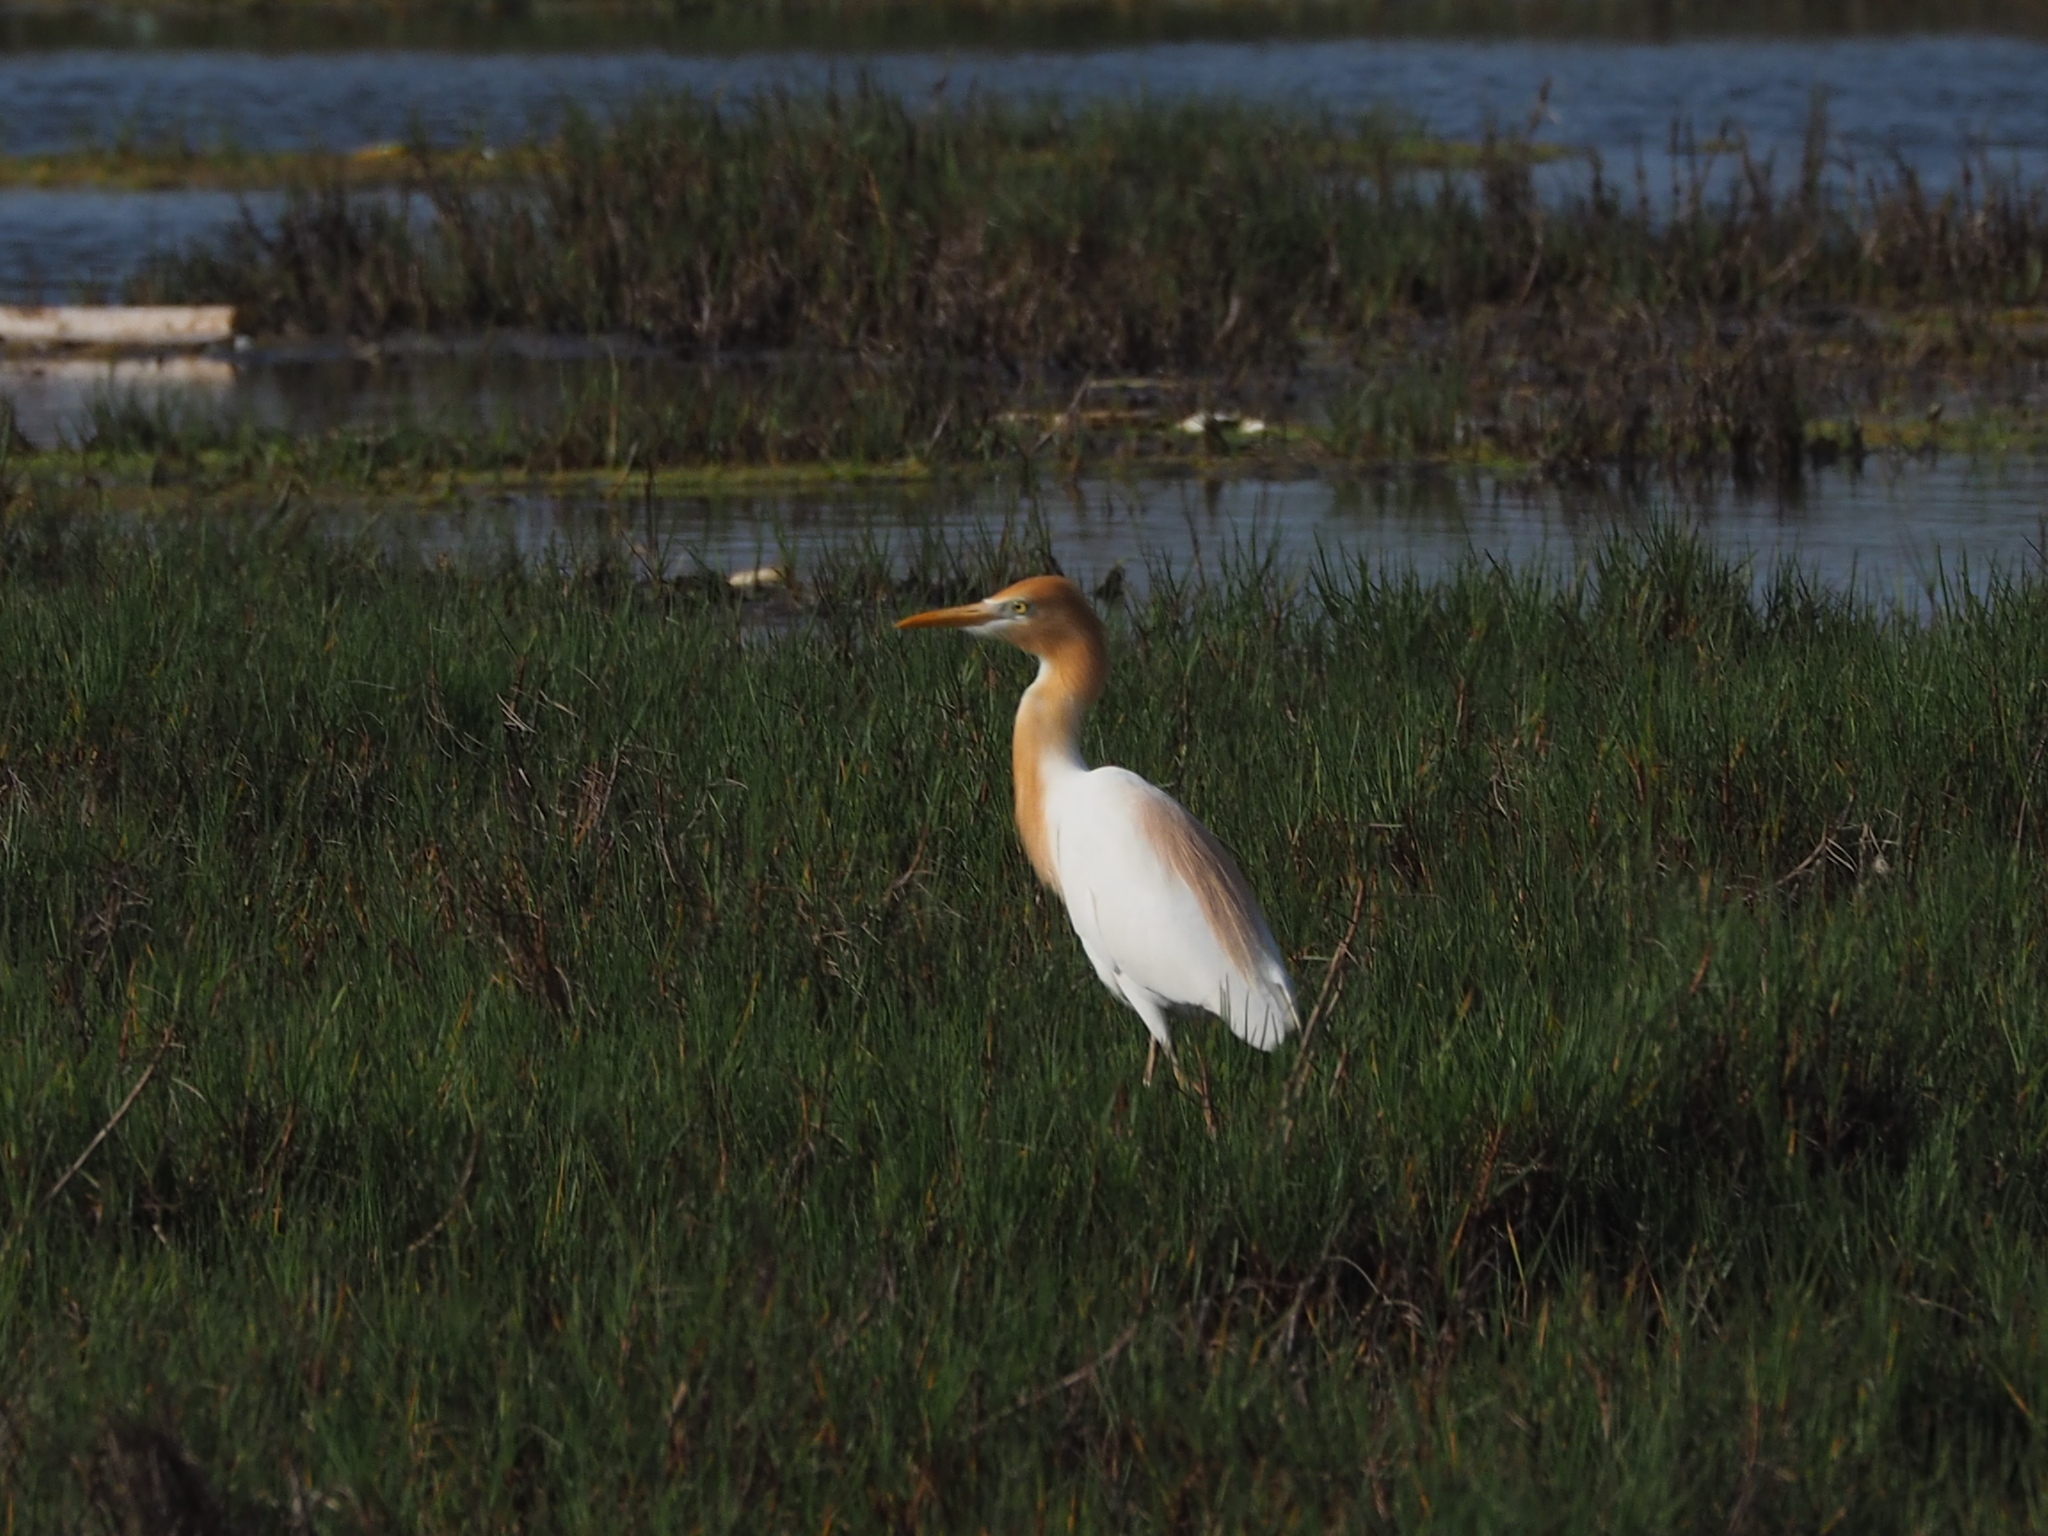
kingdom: Animalia
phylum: Chordata
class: Aves
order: Pelecaniformes
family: Ardeidae
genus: Bubulcus
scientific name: Bubulcus coromandus
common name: Eastern cattle egret
